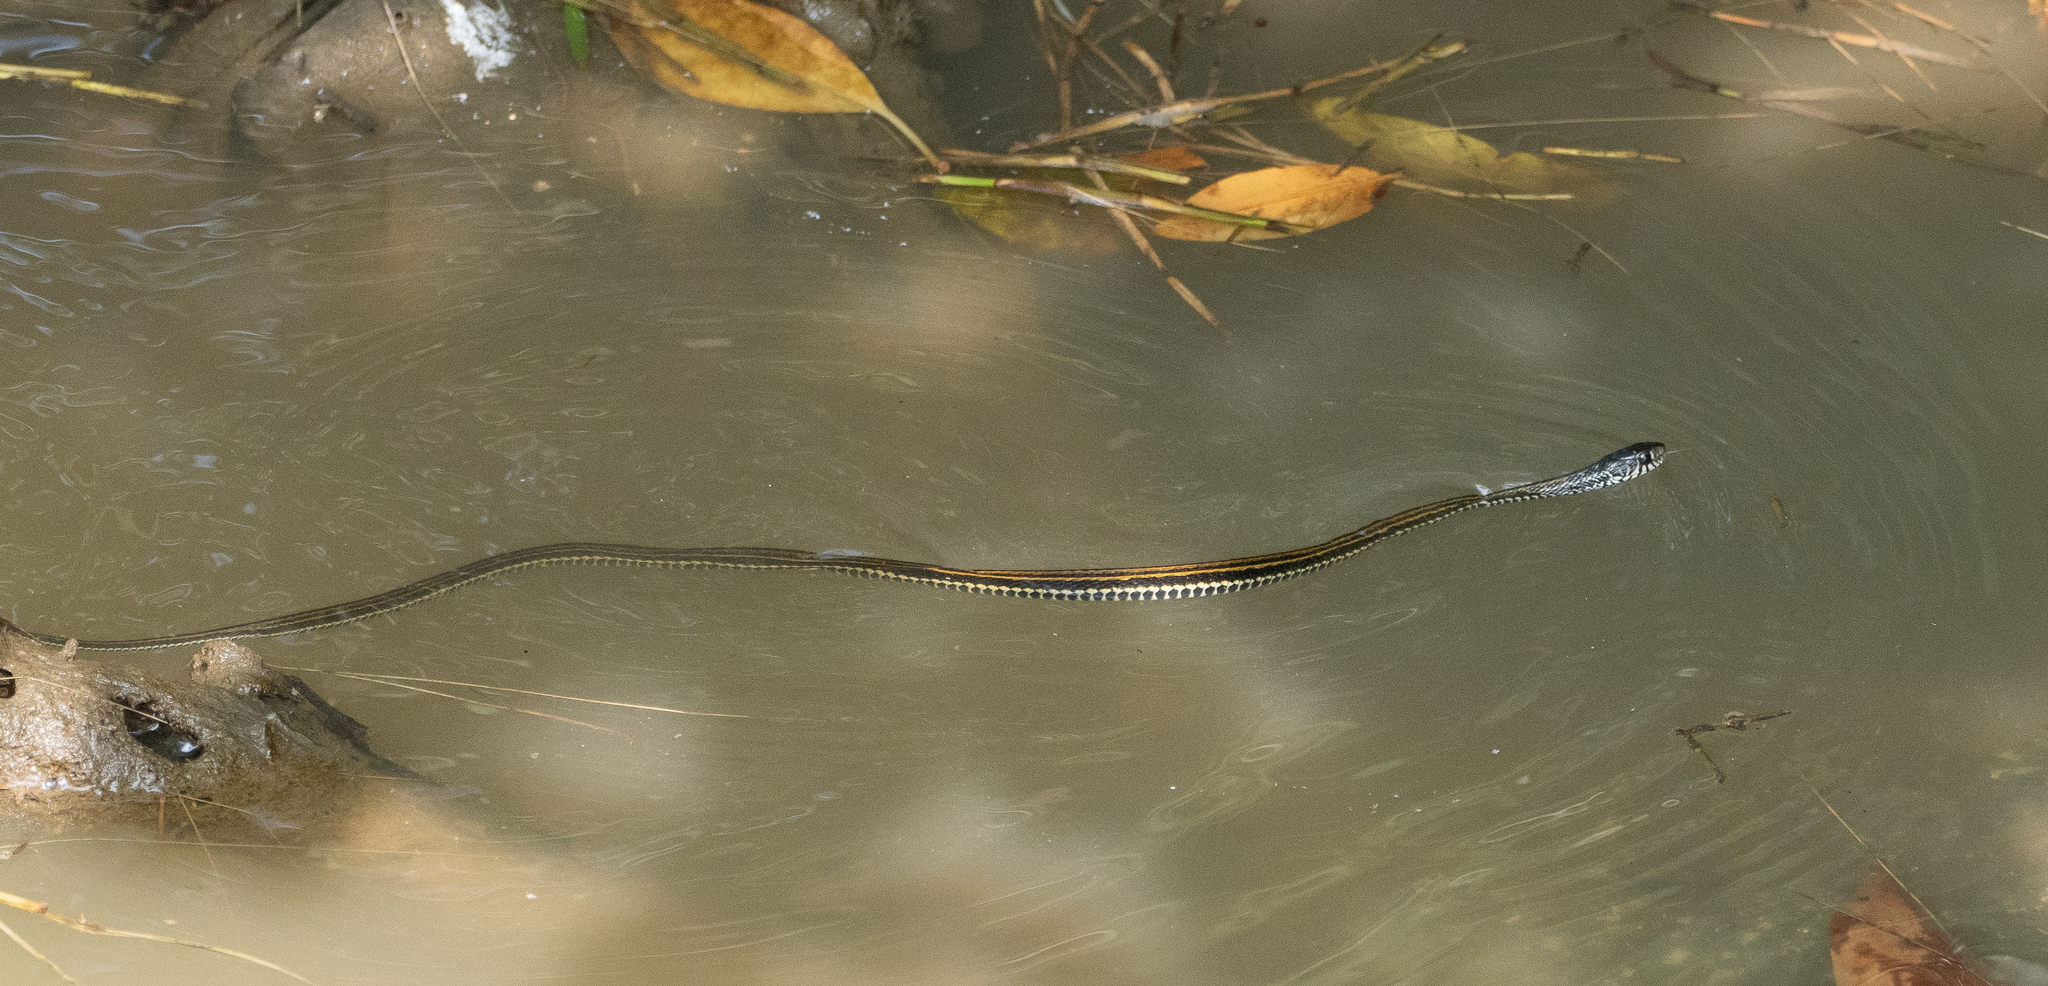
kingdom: Animalia
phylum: Chordata
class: Squamata
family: Colubridae
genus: Xenochrophis
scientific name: Xenochrophis vittatus
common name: Striped keelback
